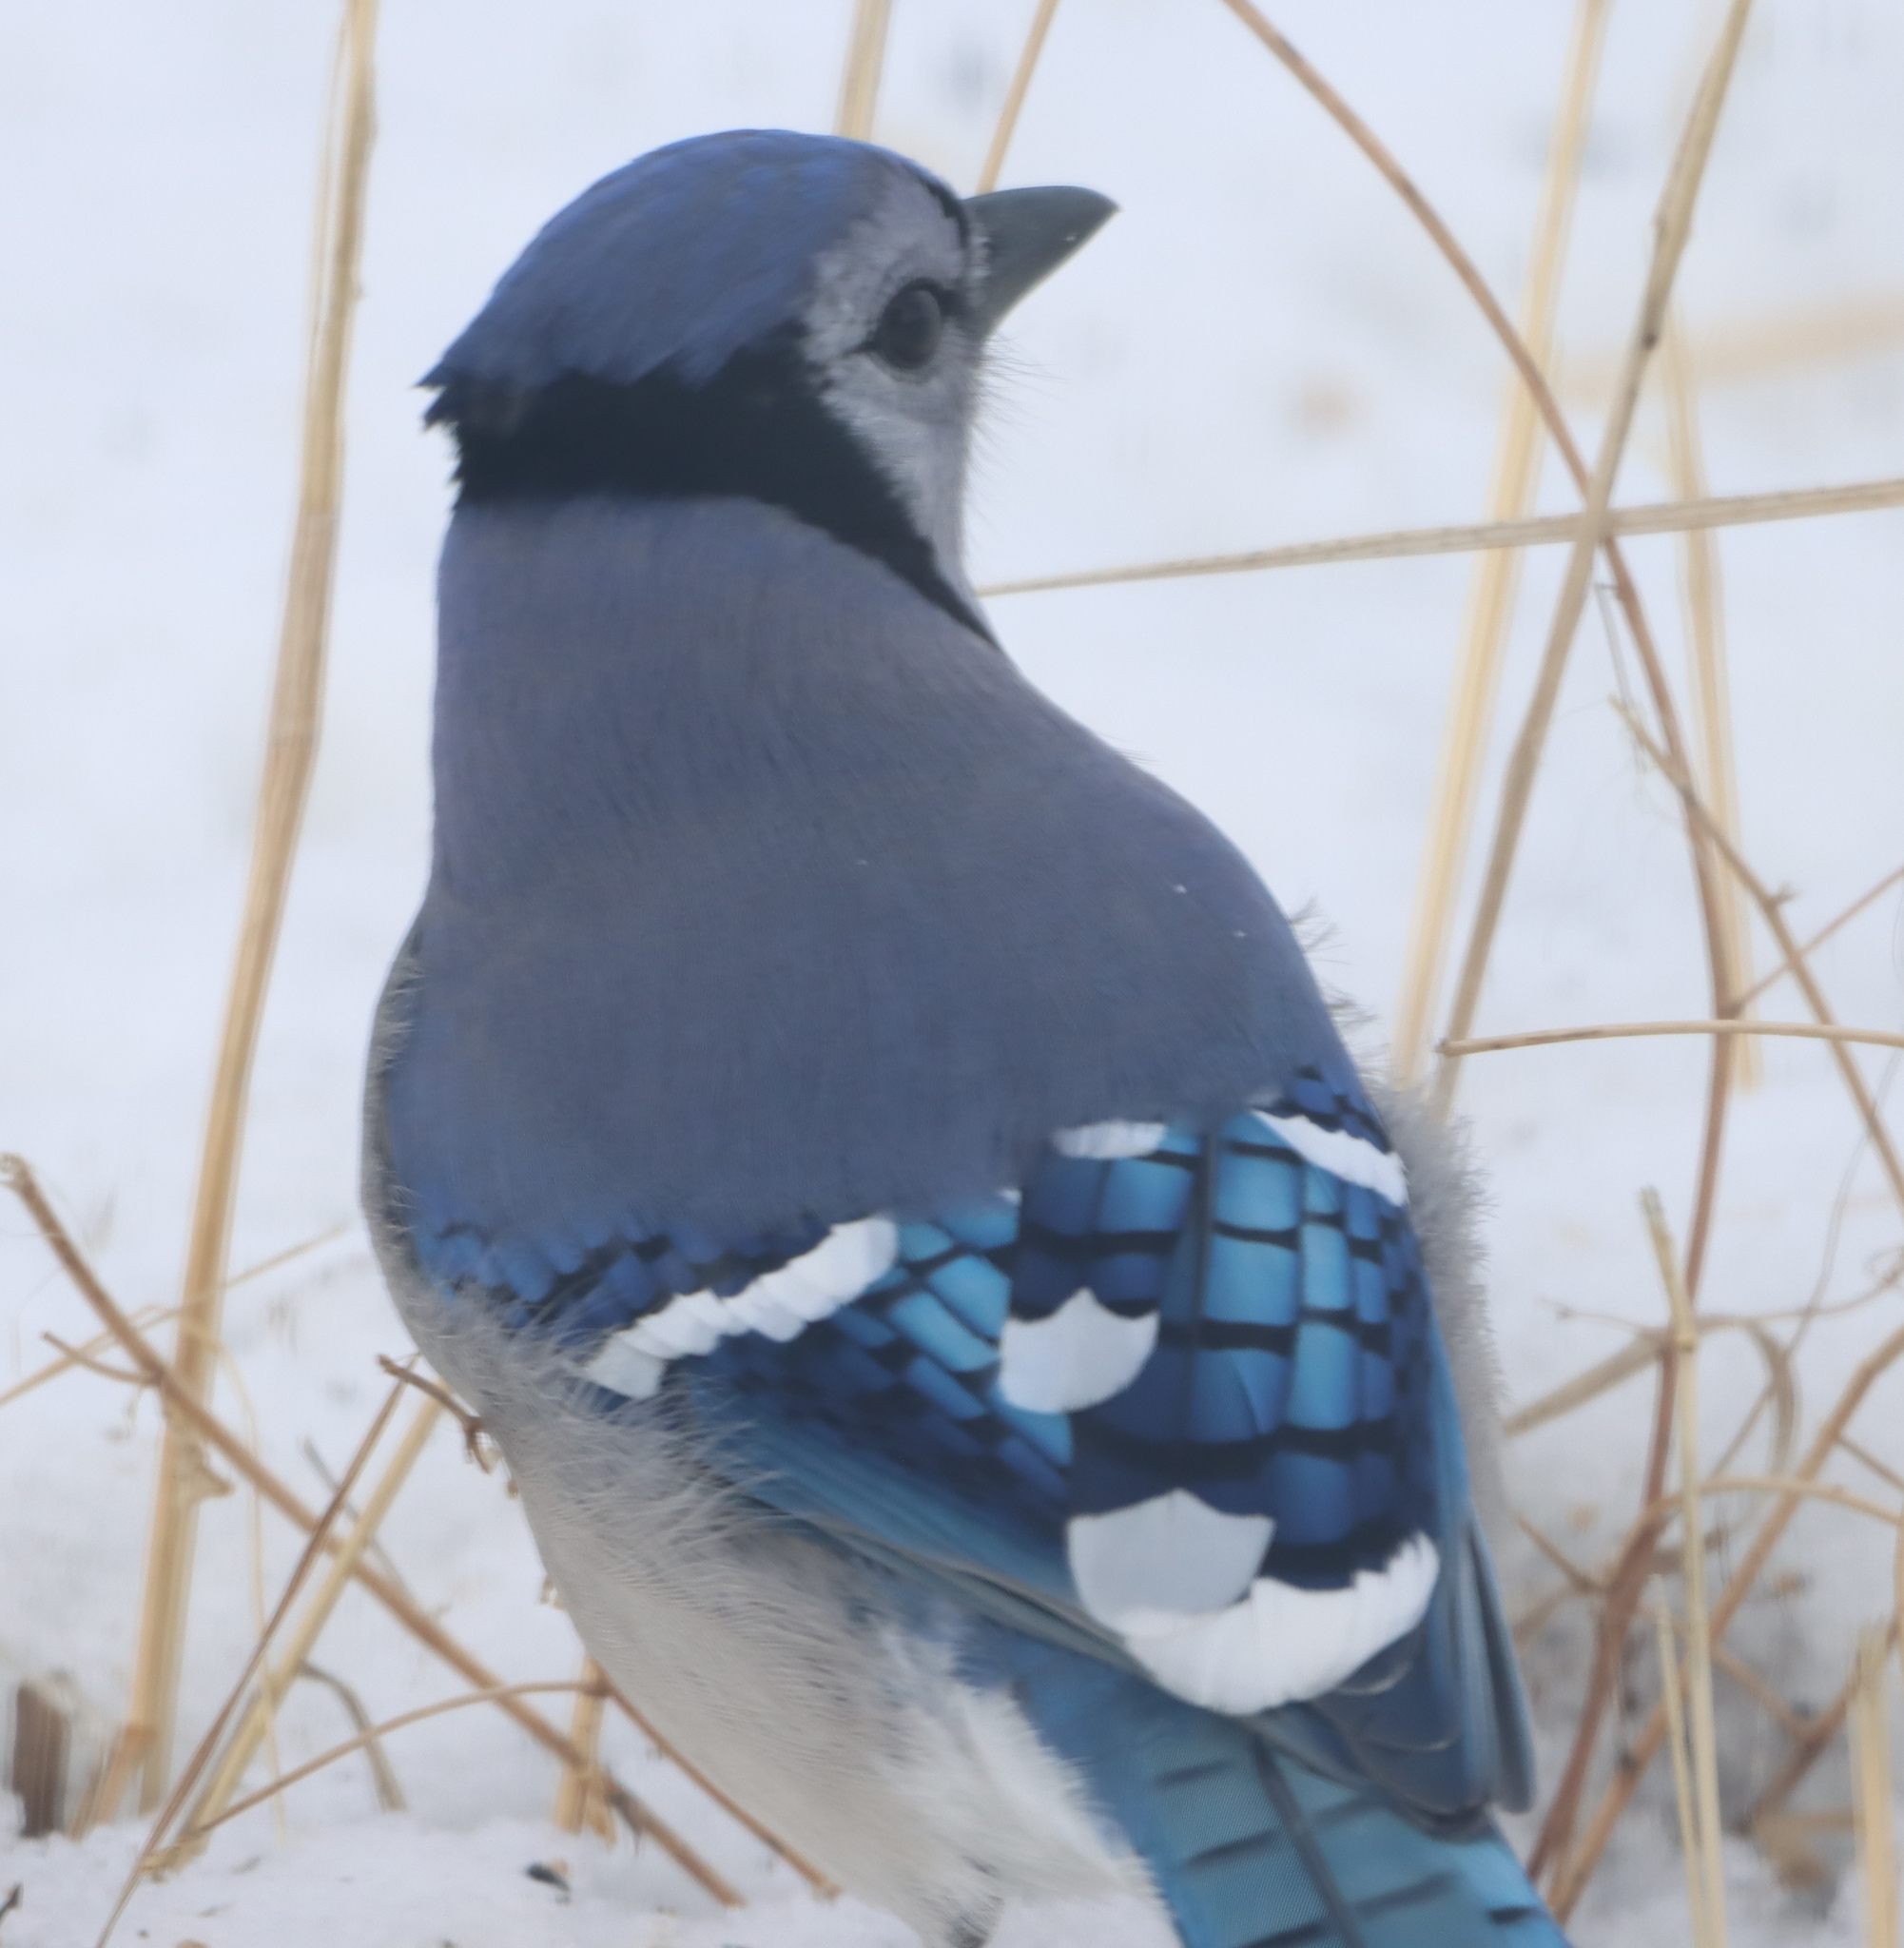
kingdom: Animalia
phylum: Chordata
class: Aves
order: Passeriformes
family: Corvidae
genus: Cyanocitta
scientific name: Cyanocitta cristata
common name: Blue jay
